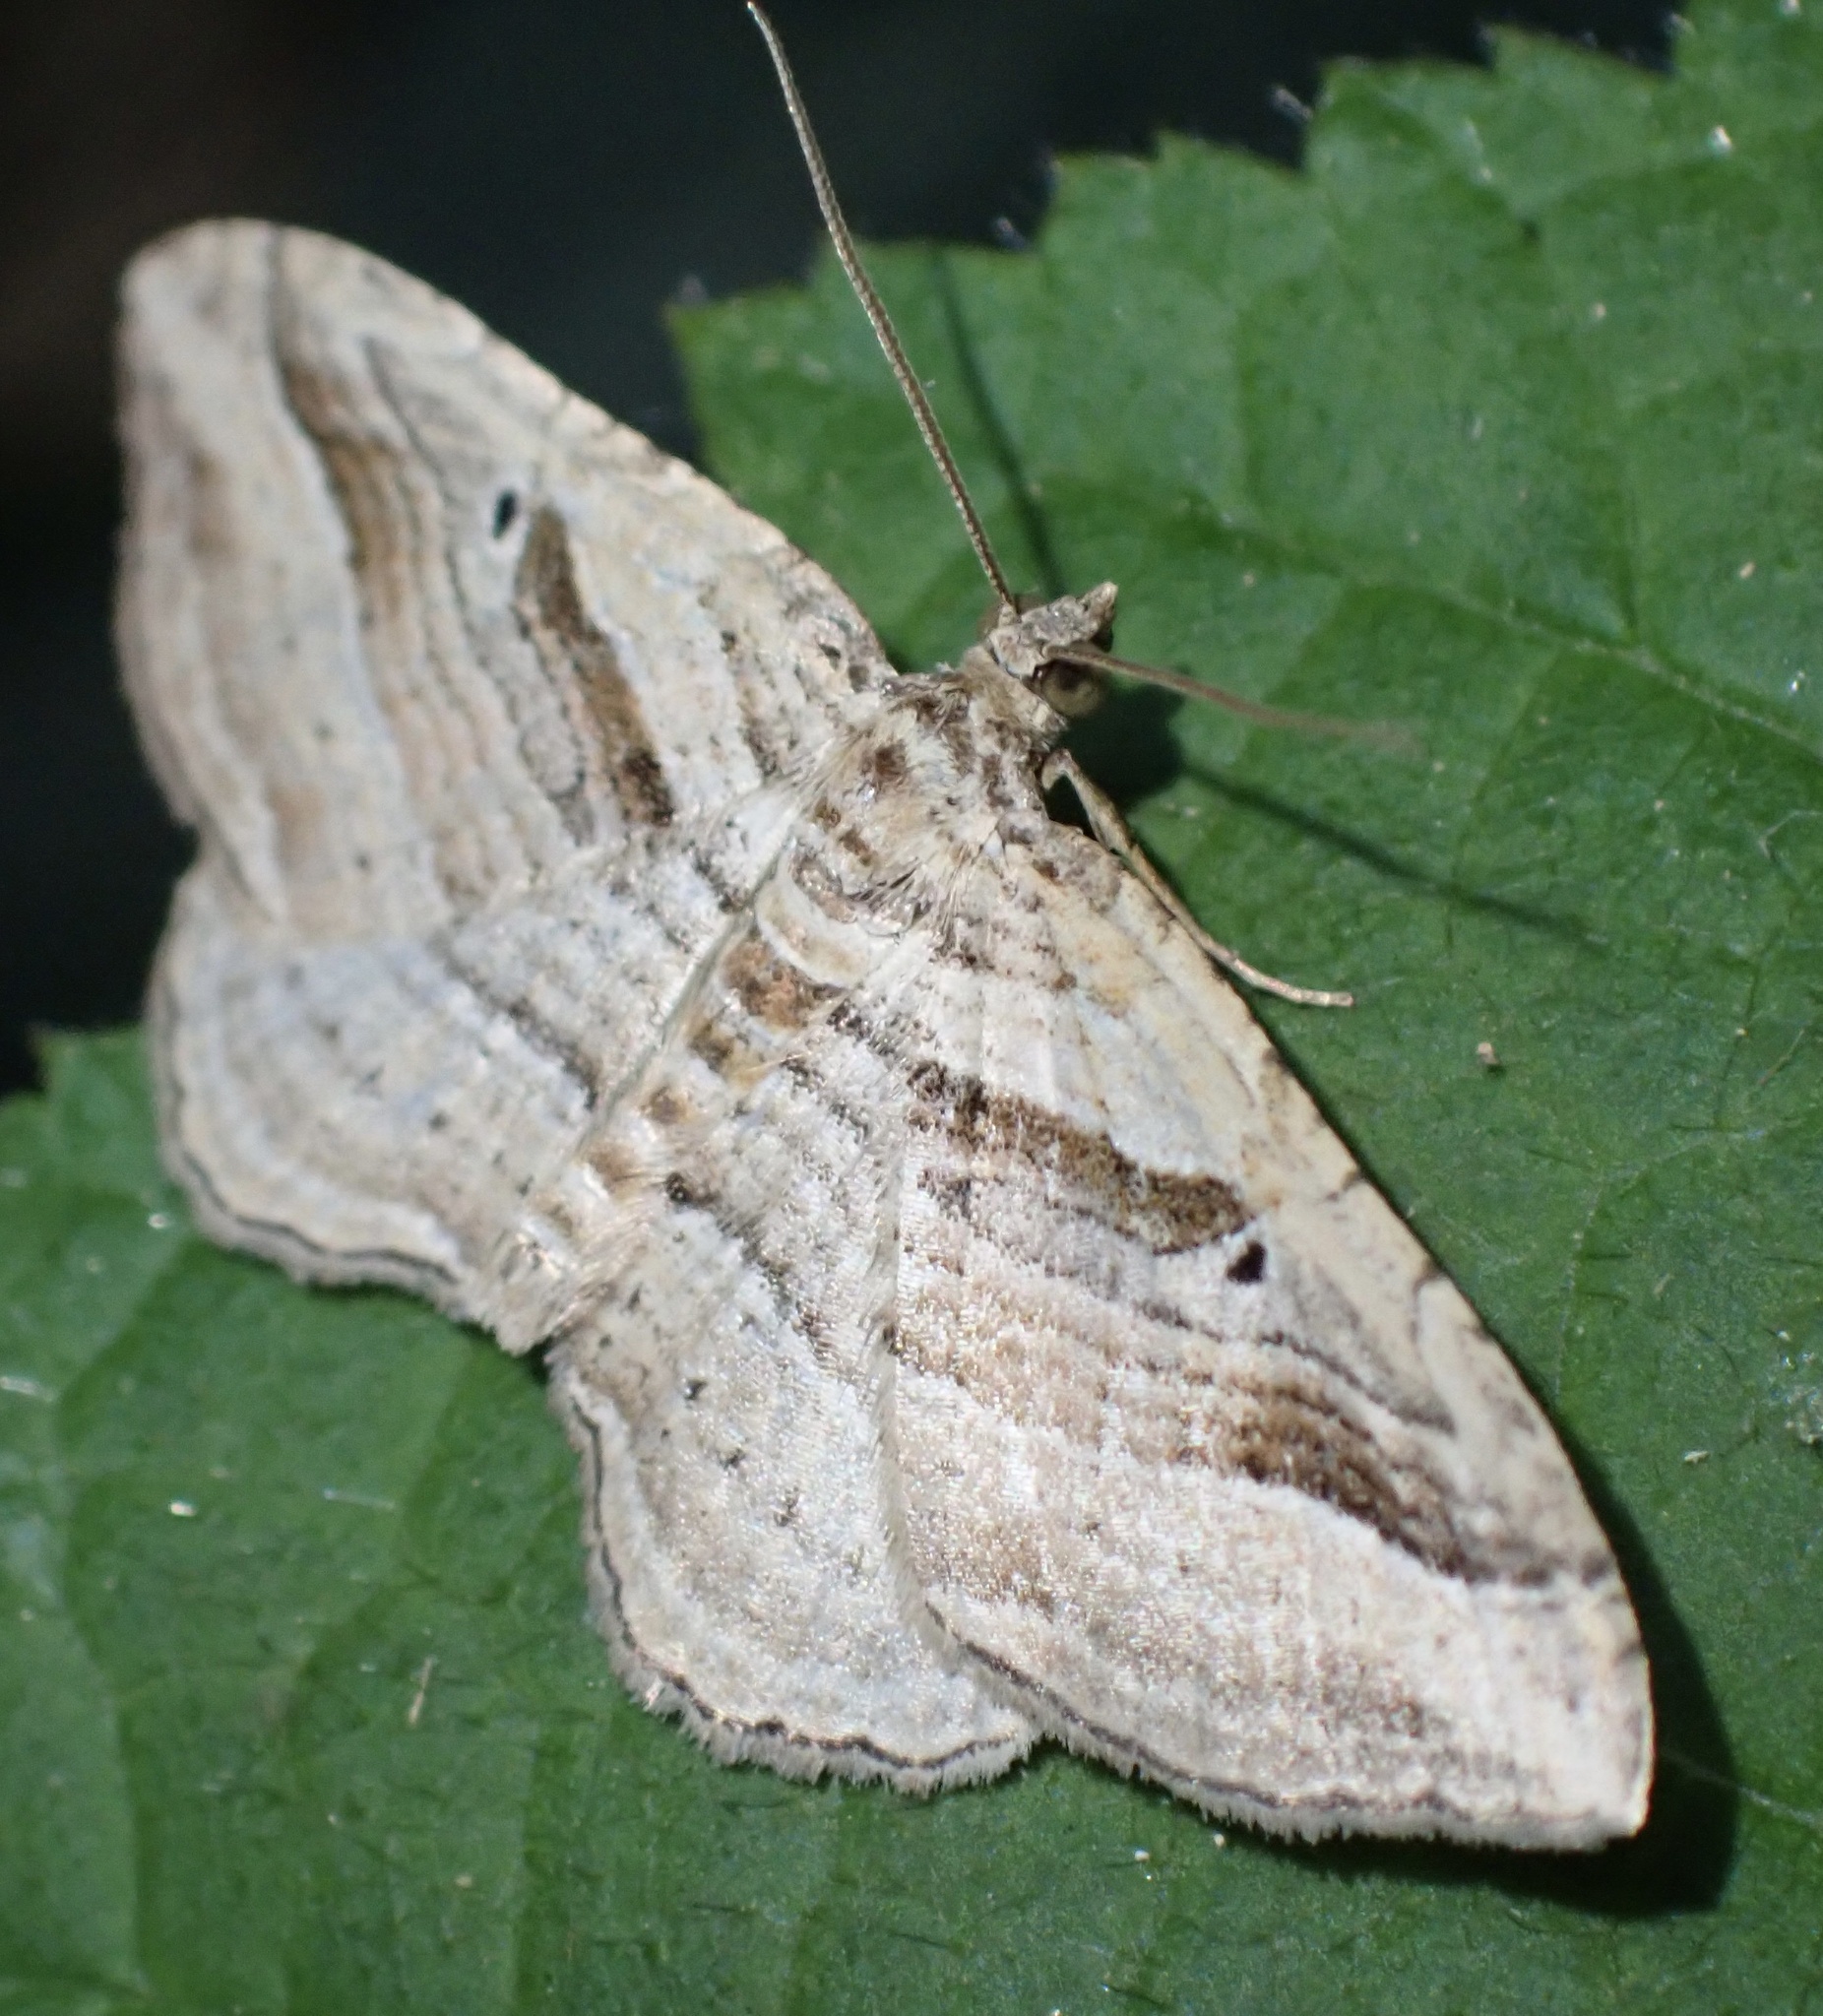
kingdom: Animalia
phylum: Arthropoda
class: Insecta
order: Lepidoptera
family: Geometridae
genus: Costaconvexa
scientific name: Costaconvexa polygrammata
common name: Many-lined
